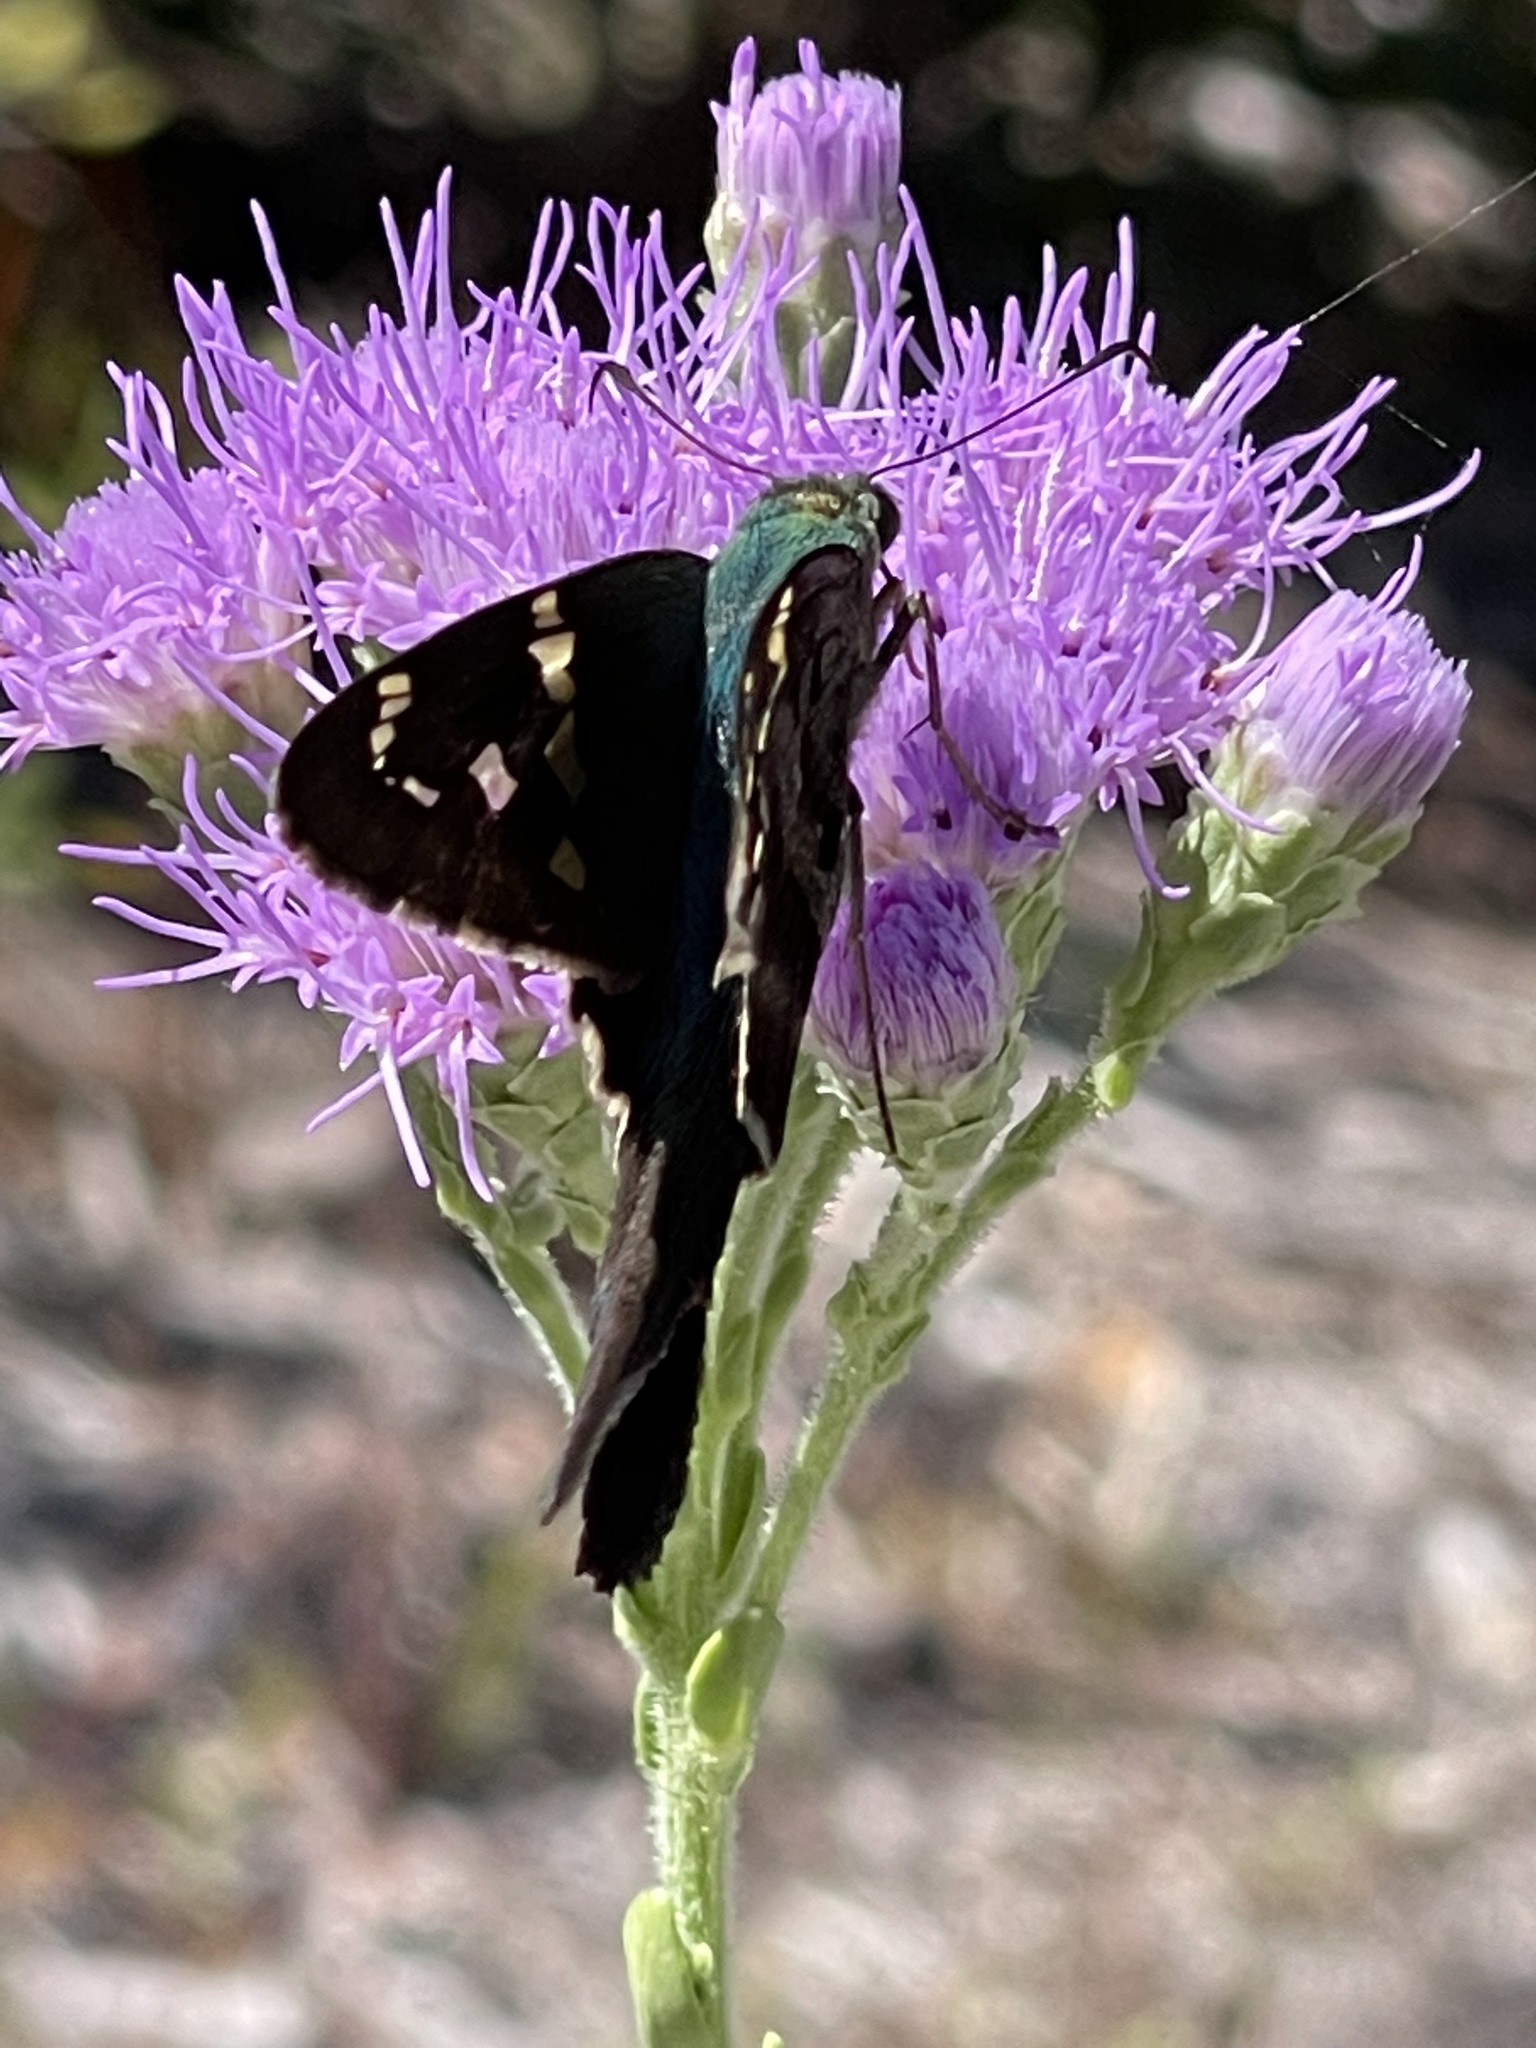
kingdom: Animalia
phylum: Arthropoda
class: Insecta
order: Lepidoptera
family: Hesperiidae
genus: Urbanus
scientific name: Urbanus proteus
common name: Long-tailed skipper
